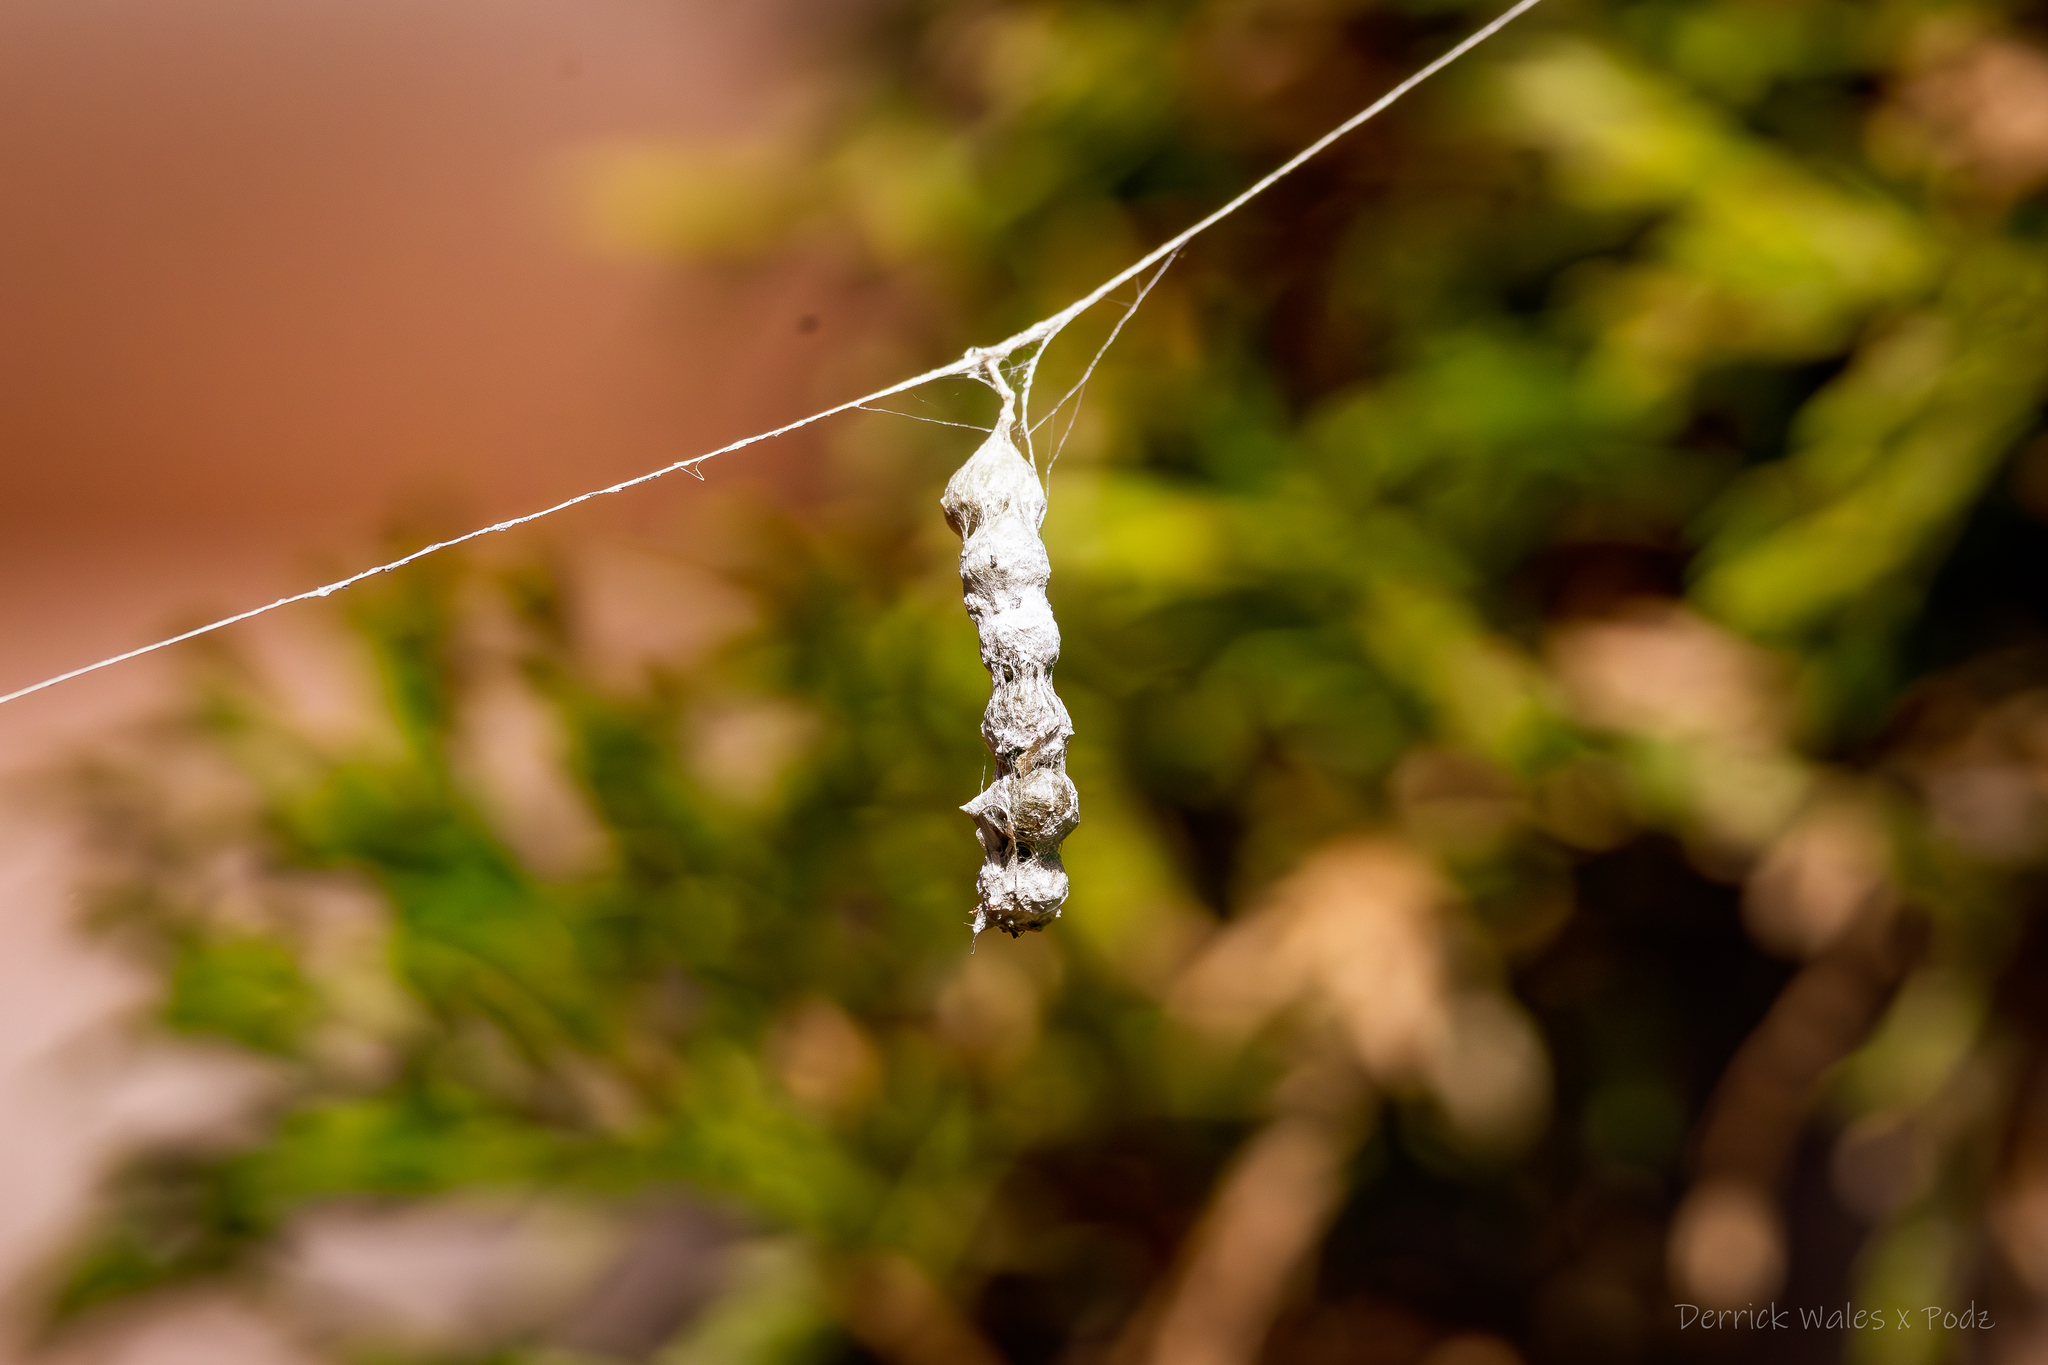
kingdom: Animalia
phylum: Arthropoda
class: Arachnida
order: Araneae
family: Araneidae
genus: Mecynogea
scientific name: Mecynogea lemniscata
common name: Orb weavers
